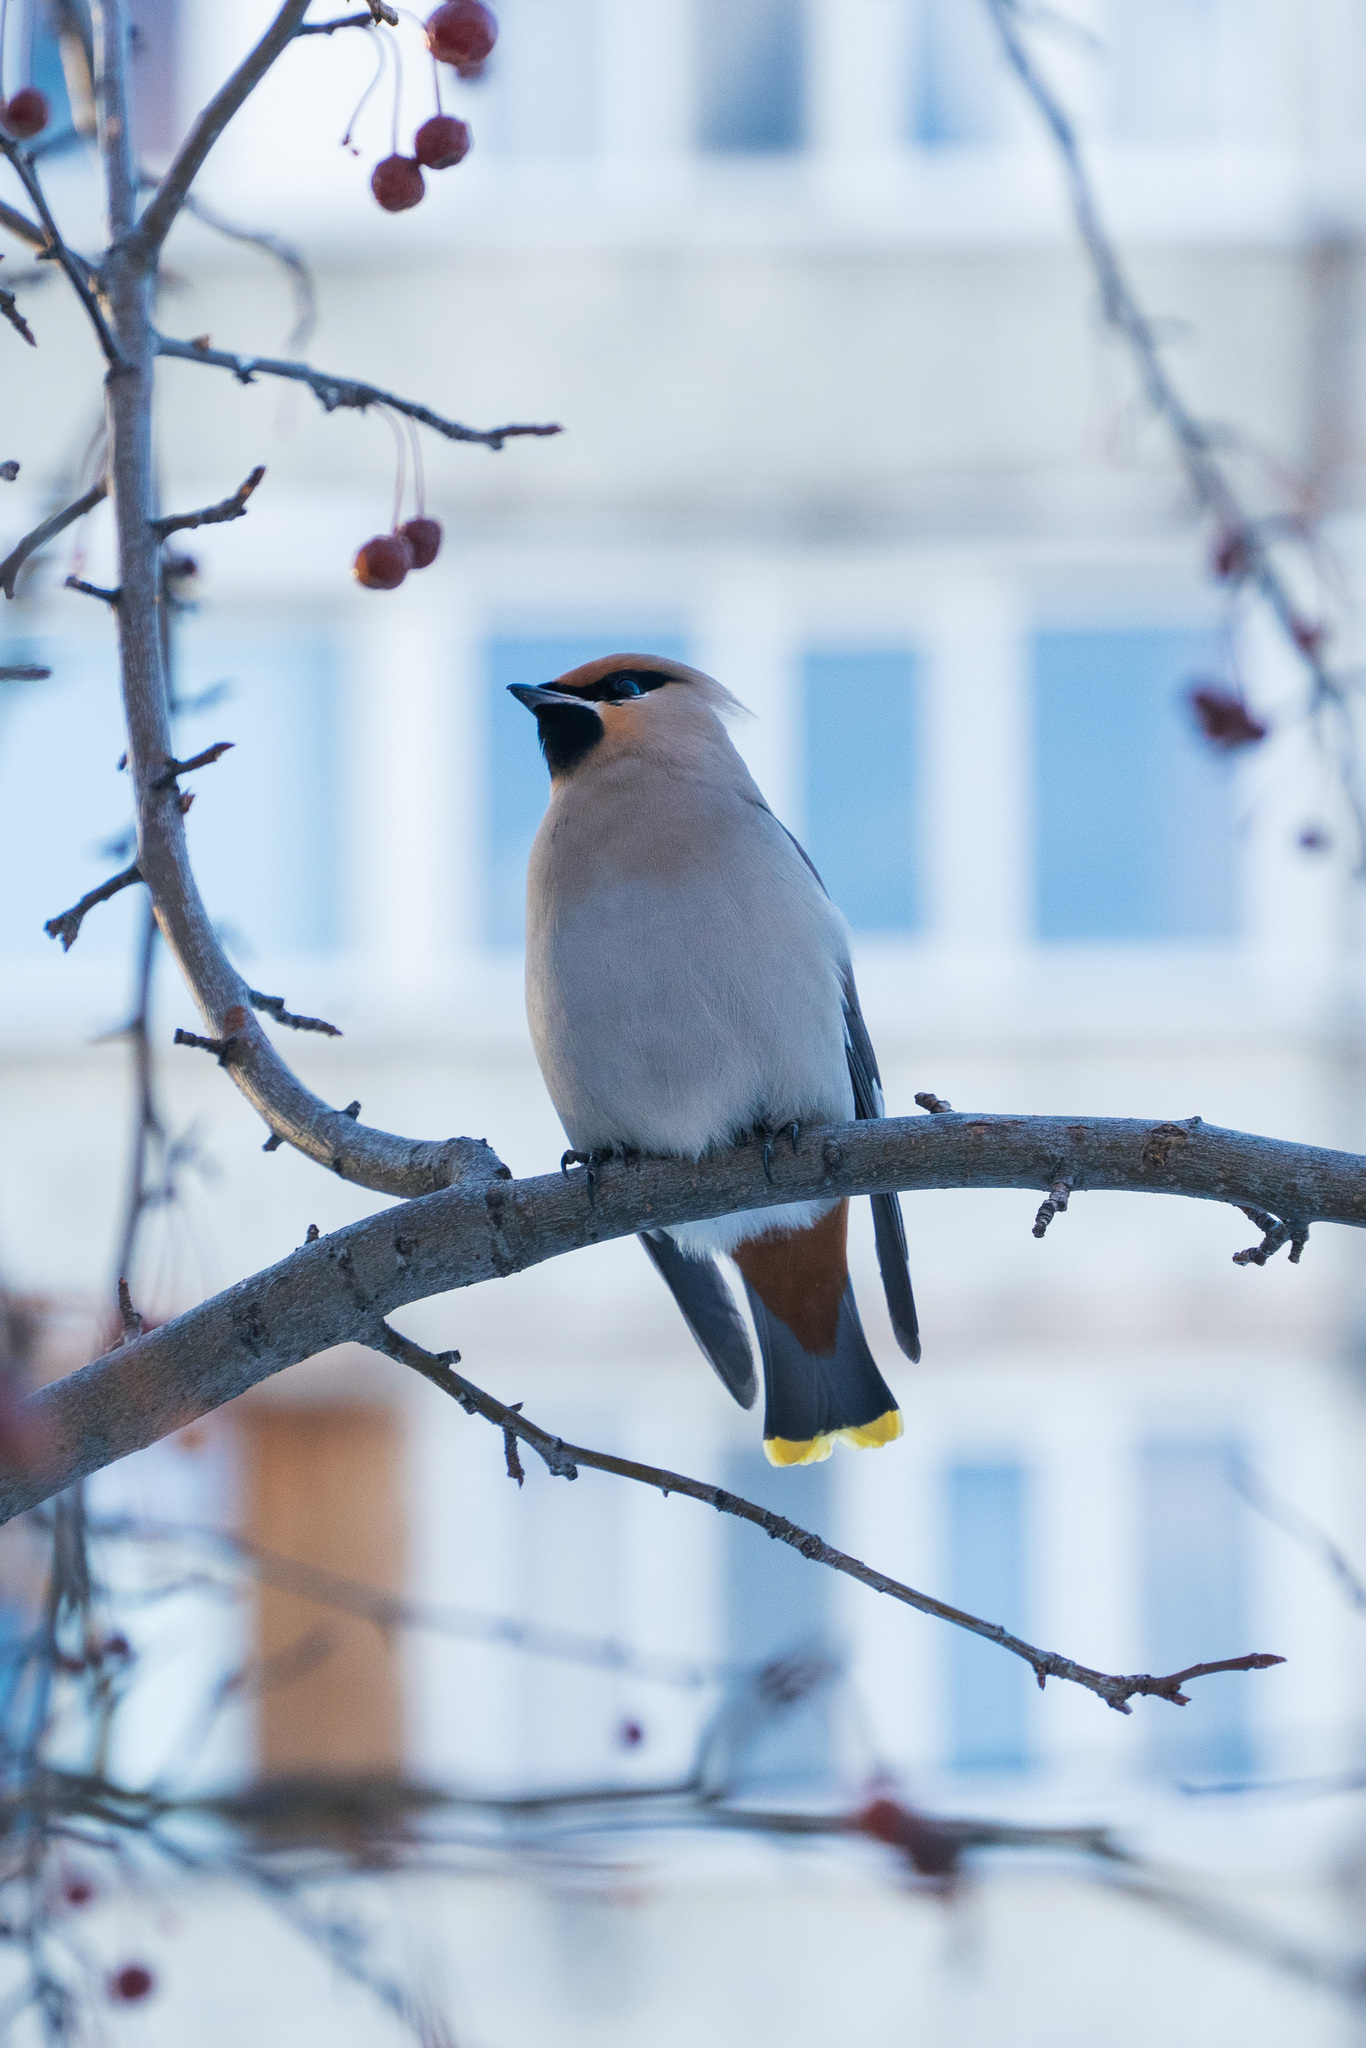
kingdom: Animalia
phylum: Chordata
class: Aves
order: Passeriformes
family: Bombycillidae
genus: Bombycilla
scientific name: Bombycilla garrulus
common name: Bohemian waxwing
